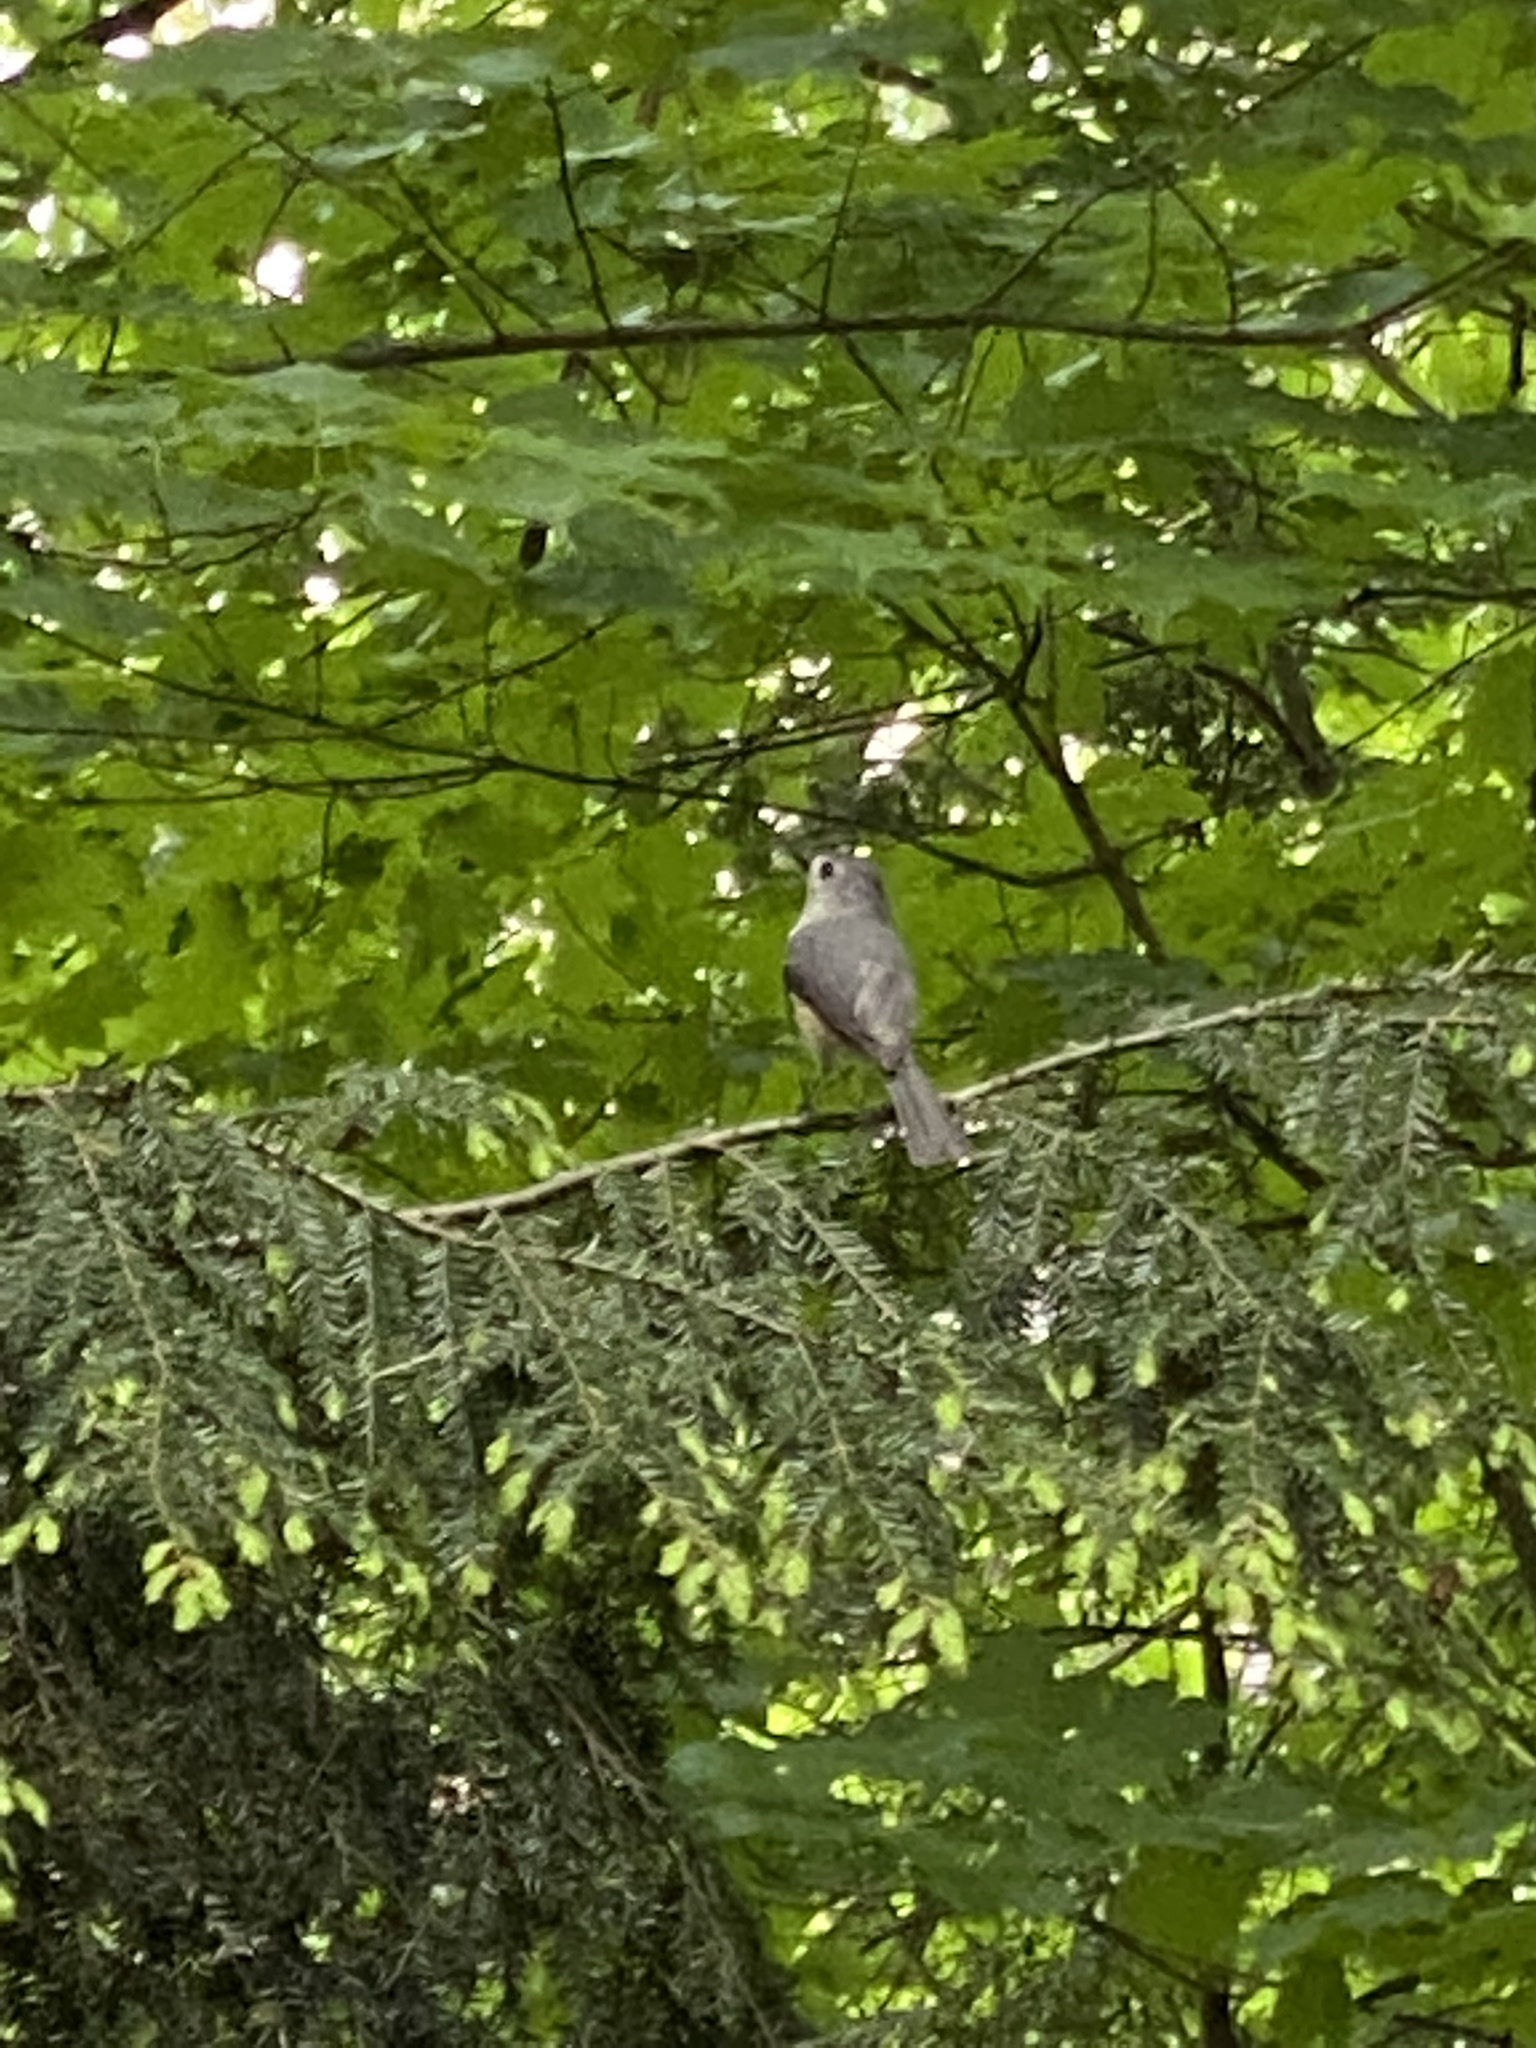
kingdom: Animalia
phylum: Chordata
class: Aves
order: Passeriformes
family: Paridae
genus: Baeolophus
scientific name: Baeolophus bicolor
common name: Tufted titmouse
